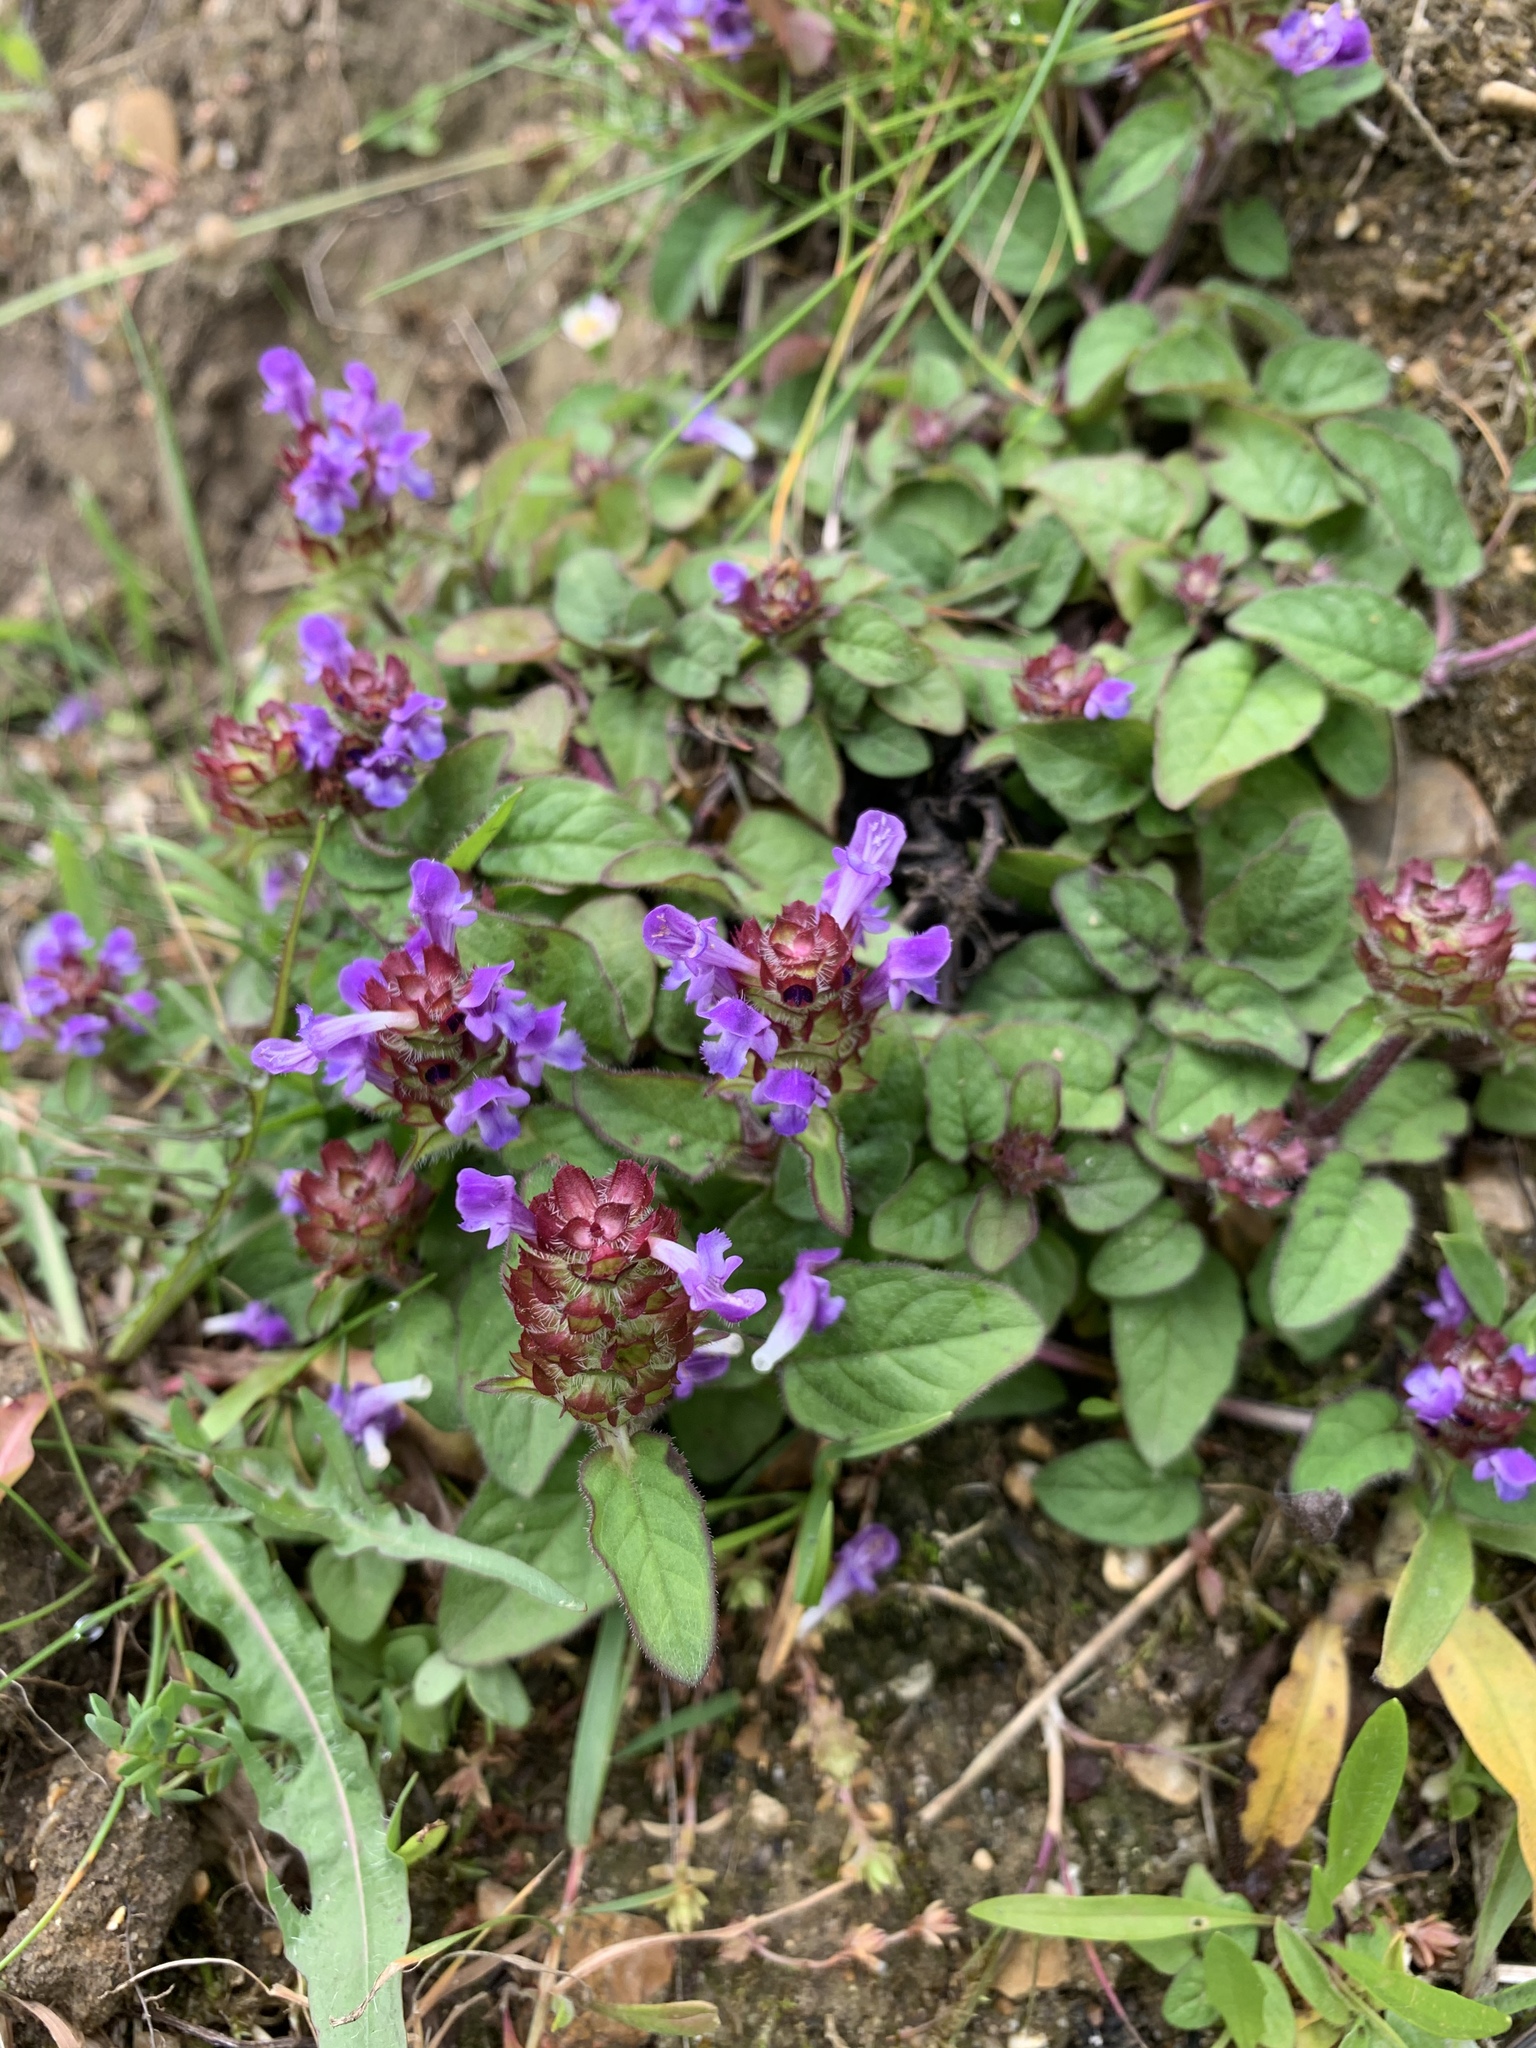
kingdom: Plantae
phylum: Tracheophyta
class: Magnoliopsida
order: Lamiales
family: Lamiaceae
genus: Prunella
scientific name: Prunella vulgaris
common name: Heal-all
